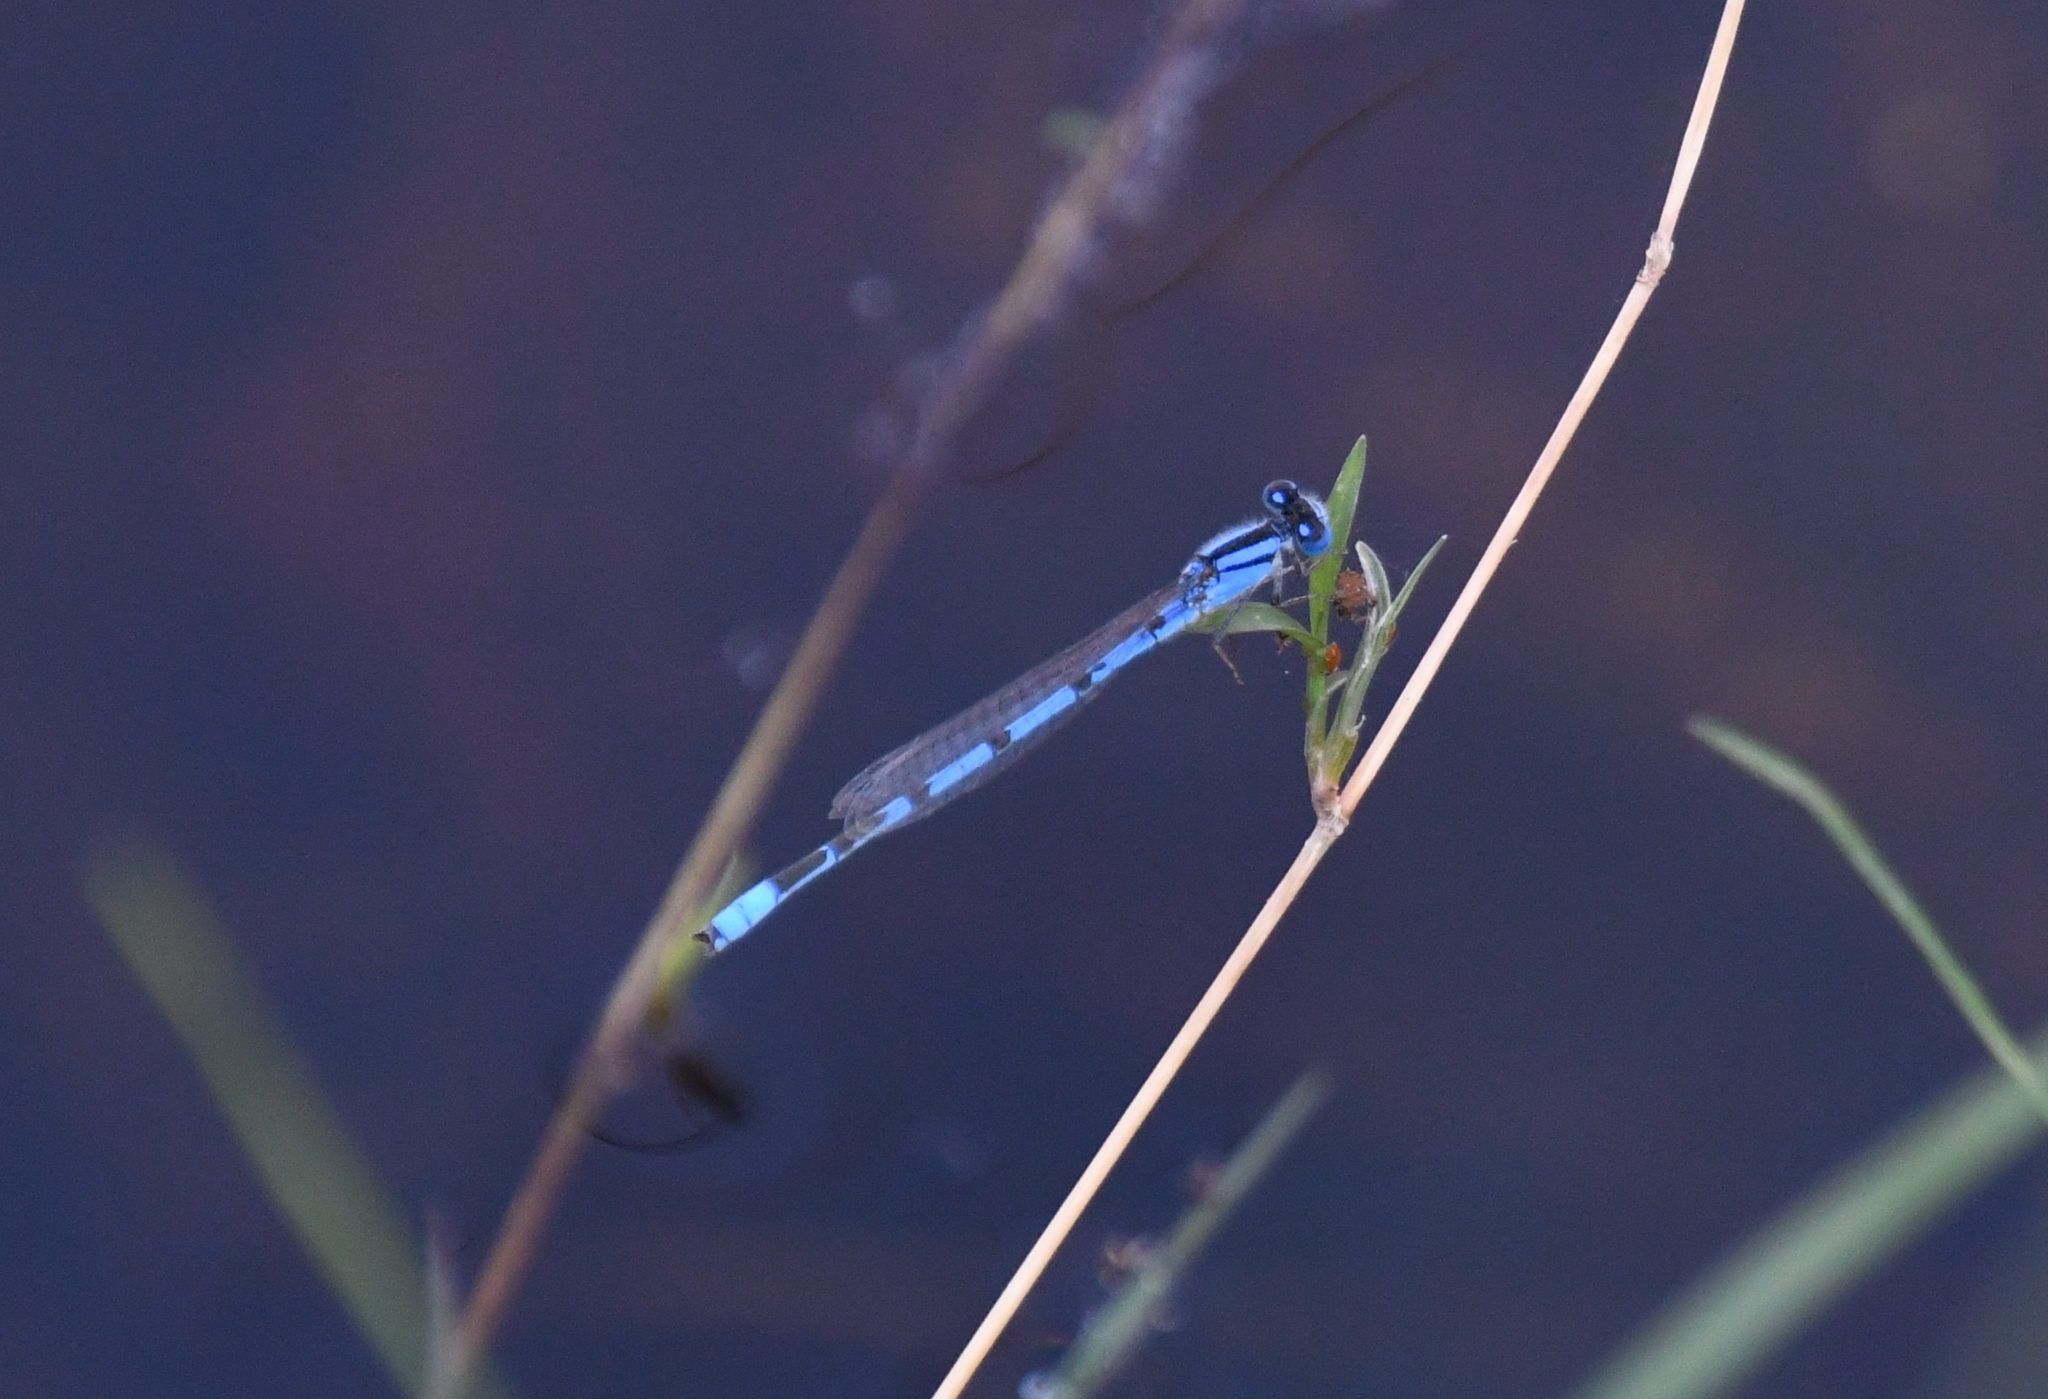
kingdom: Animalia
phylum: Arthropoda
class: Insecta
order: Odonata
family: Coenagrionidae
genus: Enallagma
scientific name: Enallagma civile
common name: Damselfly
